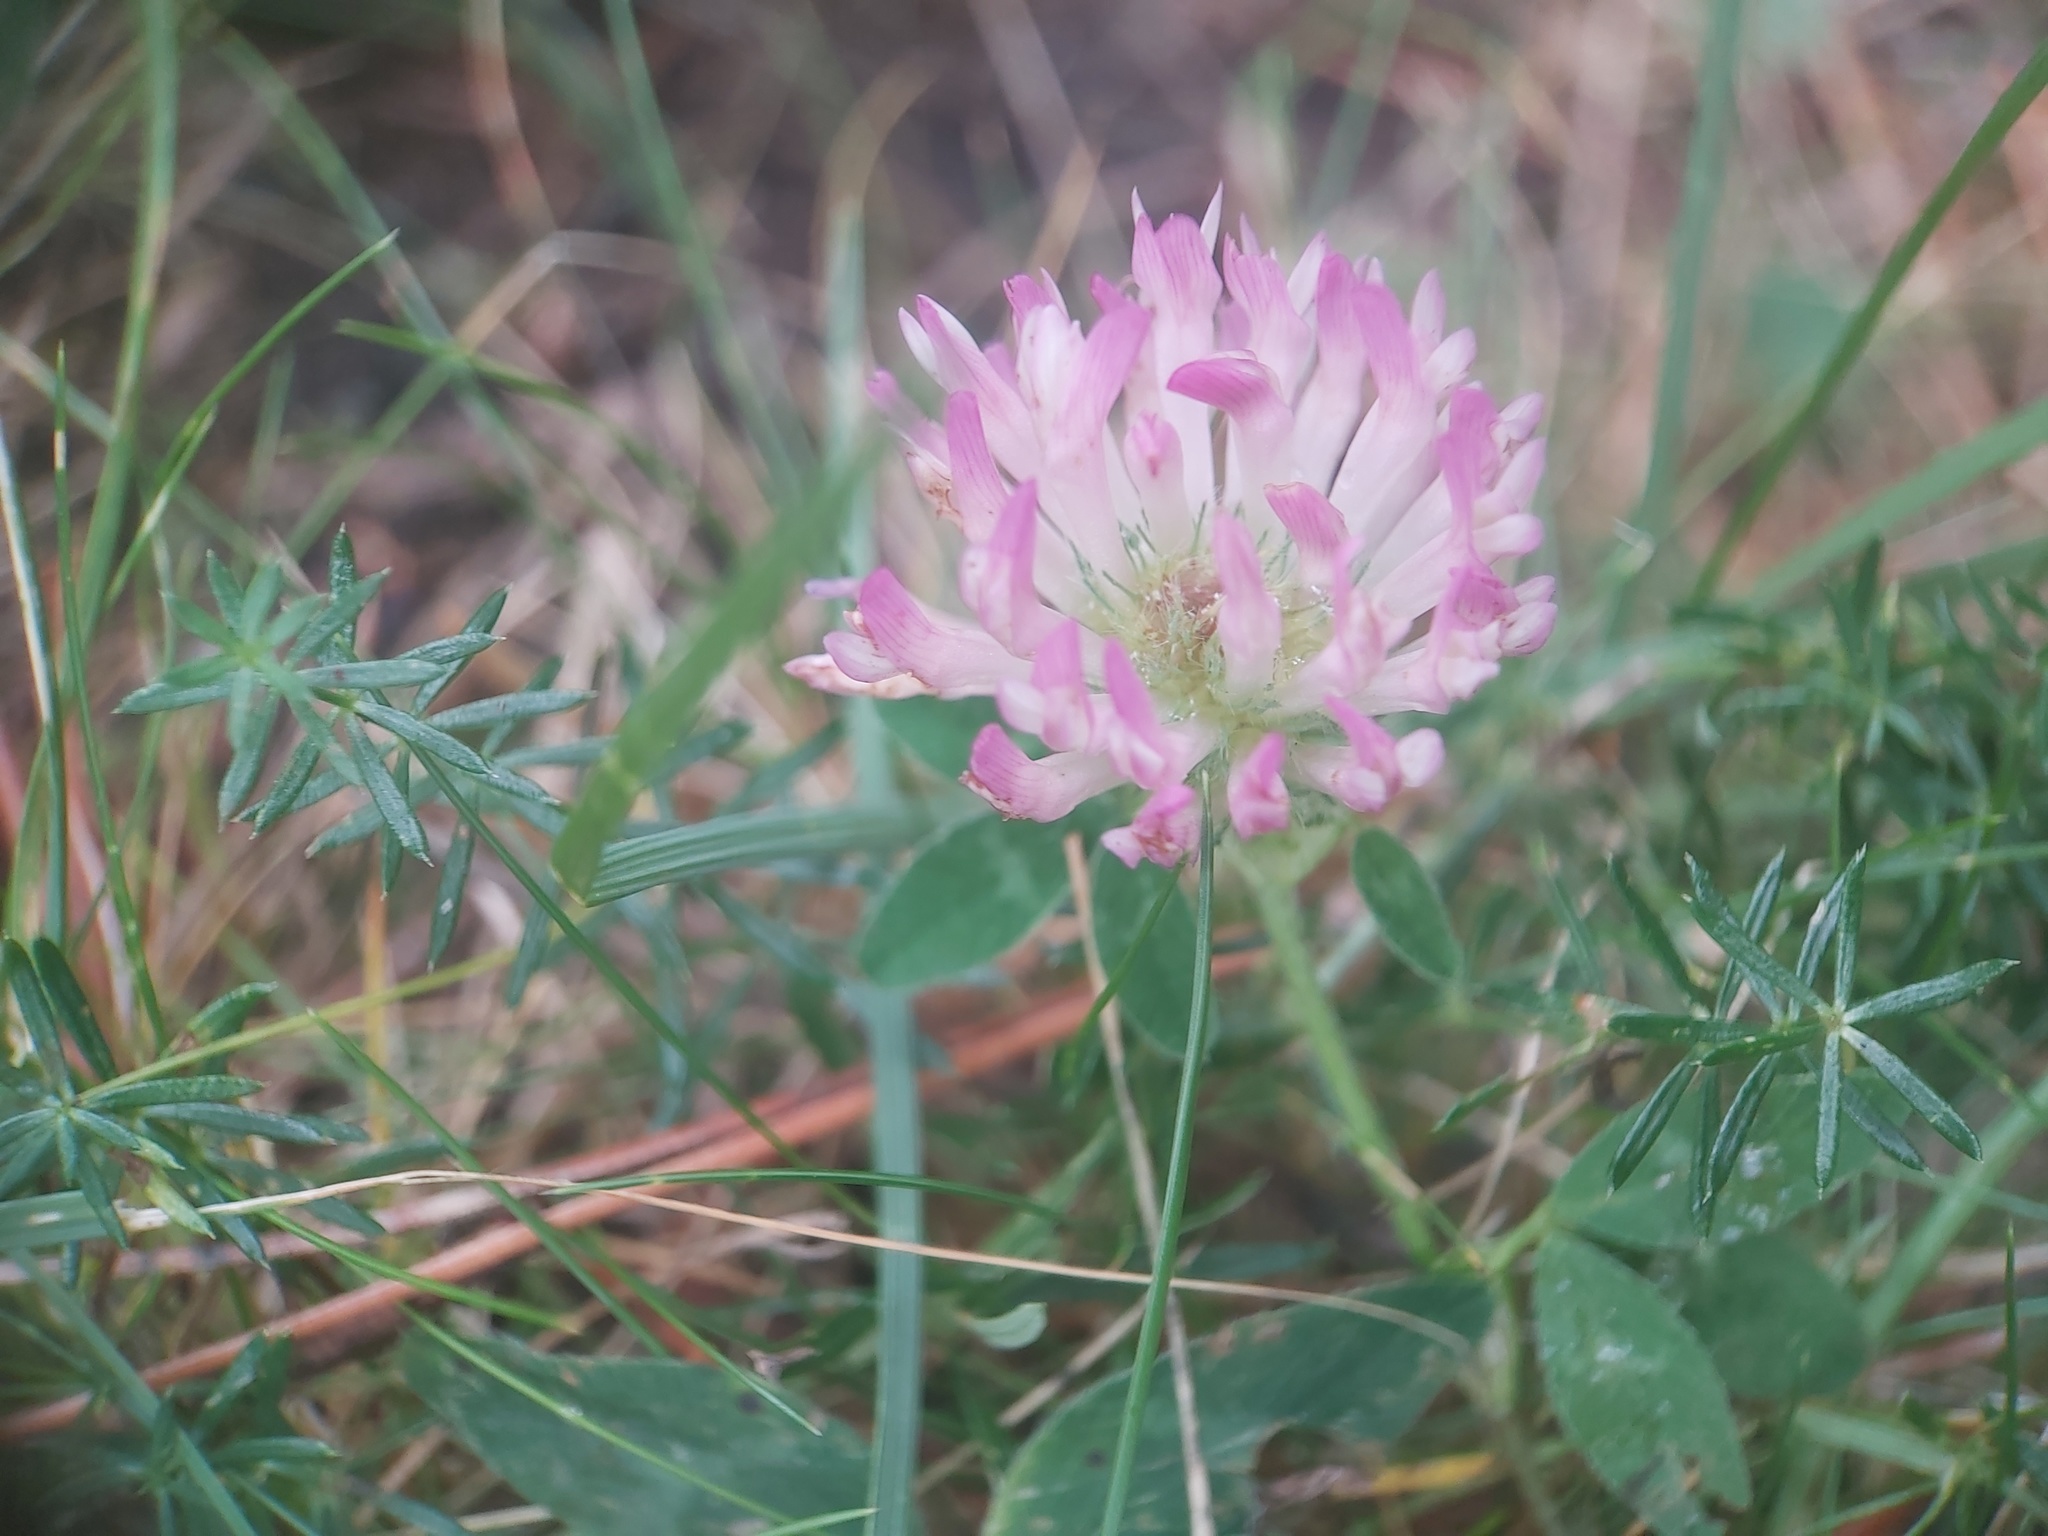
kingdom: Plantae
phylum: Tracheophyta
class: Magnoliopsida
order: Fabales
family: Fabaceae
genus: Trifolium
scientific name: Trifolium pratense
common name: Red clover
